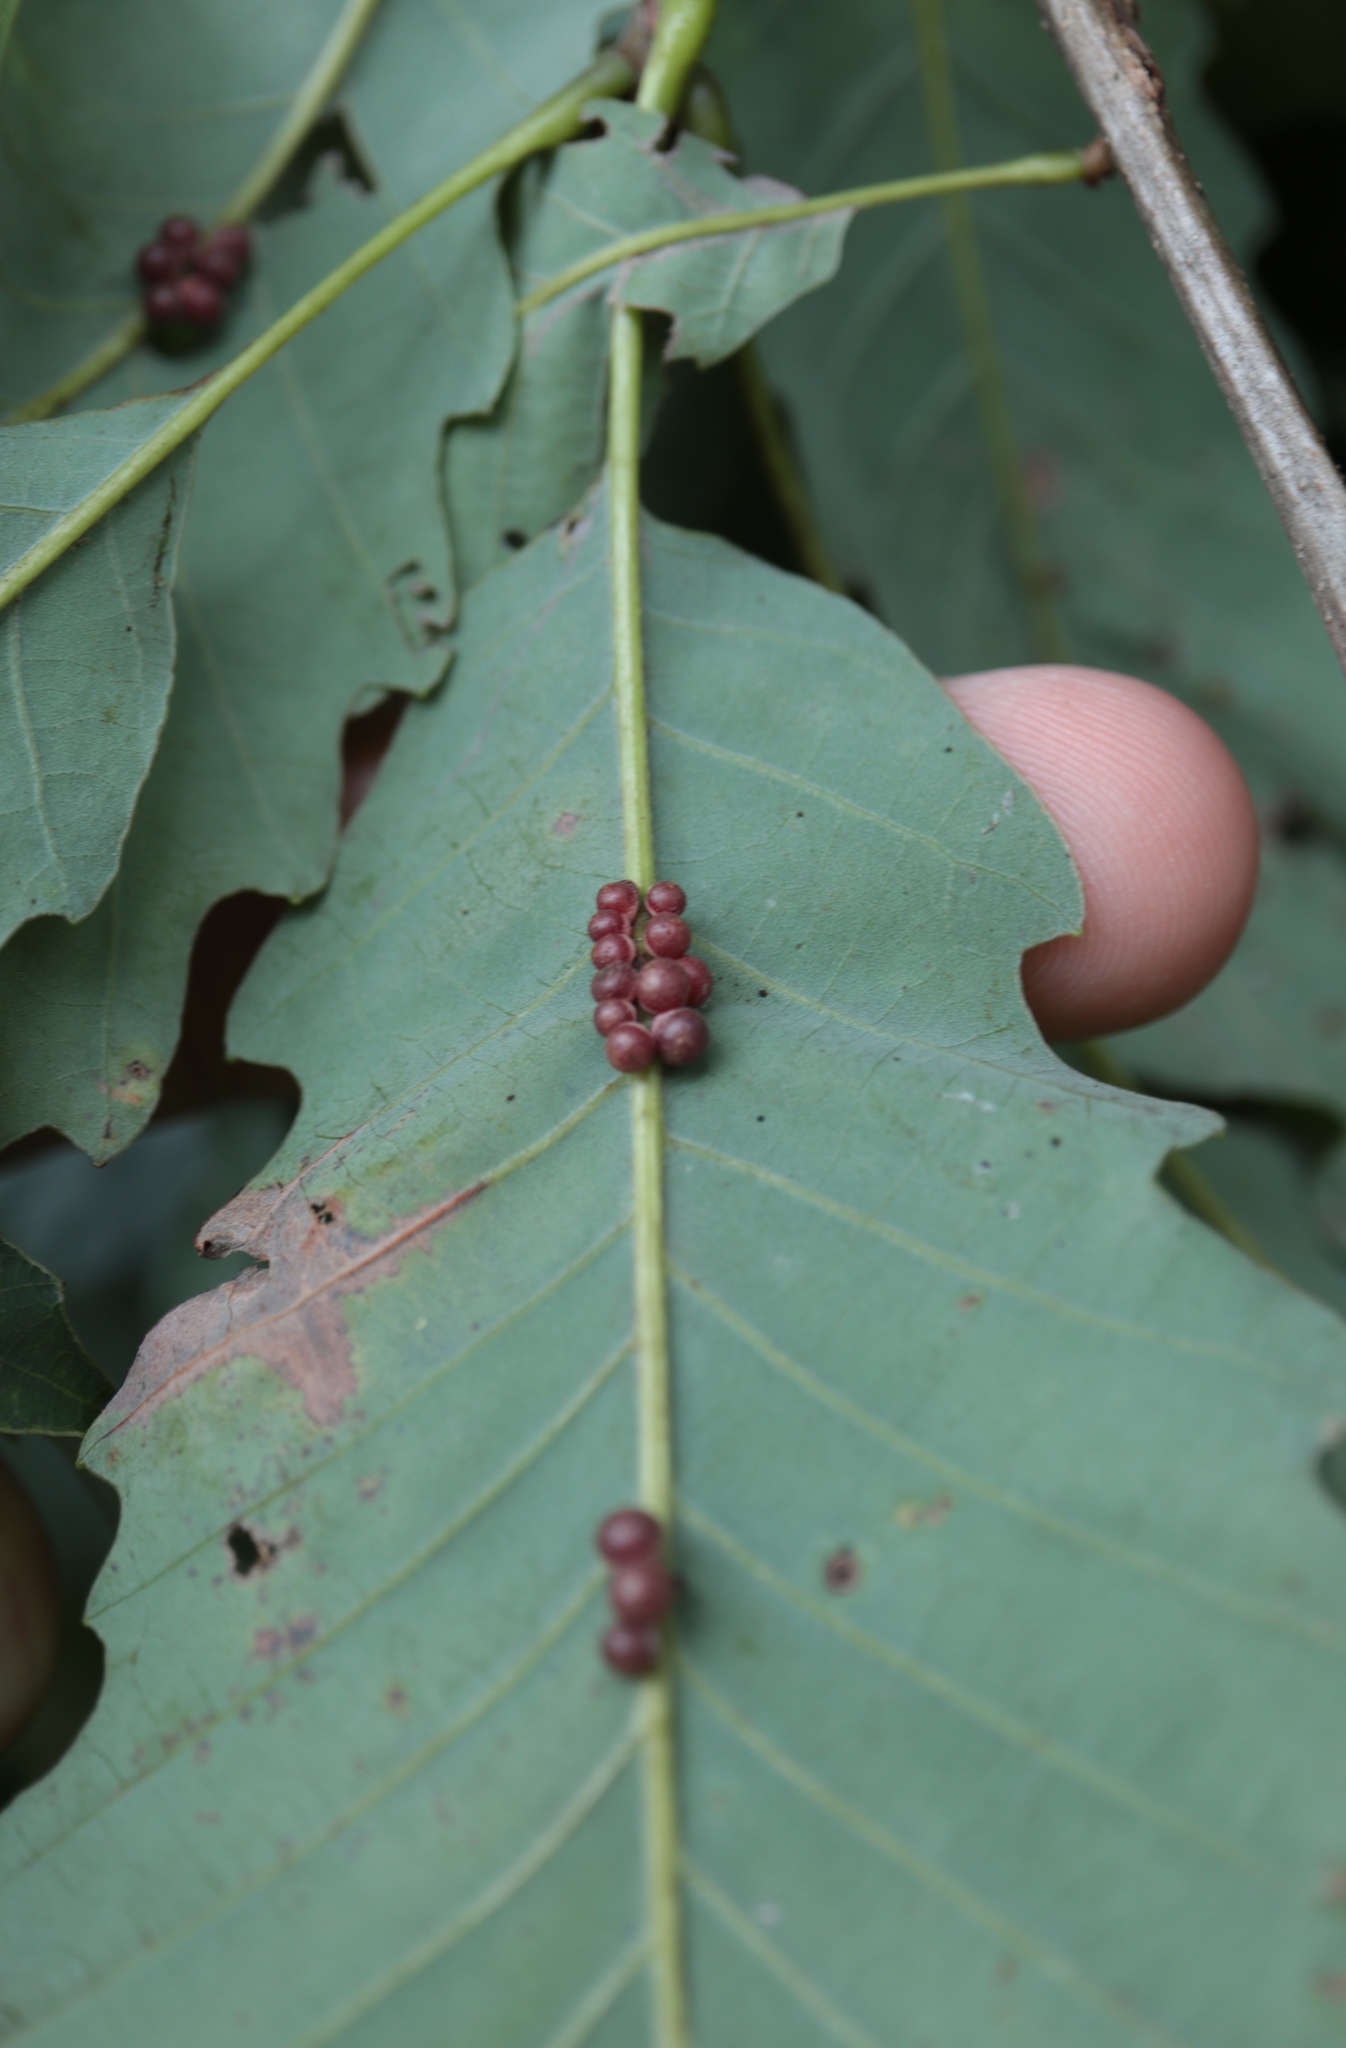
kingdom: Animalia
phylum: Arthropoda
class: Insecta
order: Hymenoptera
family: Cynipidae
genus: Andricus
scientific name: Andricus
